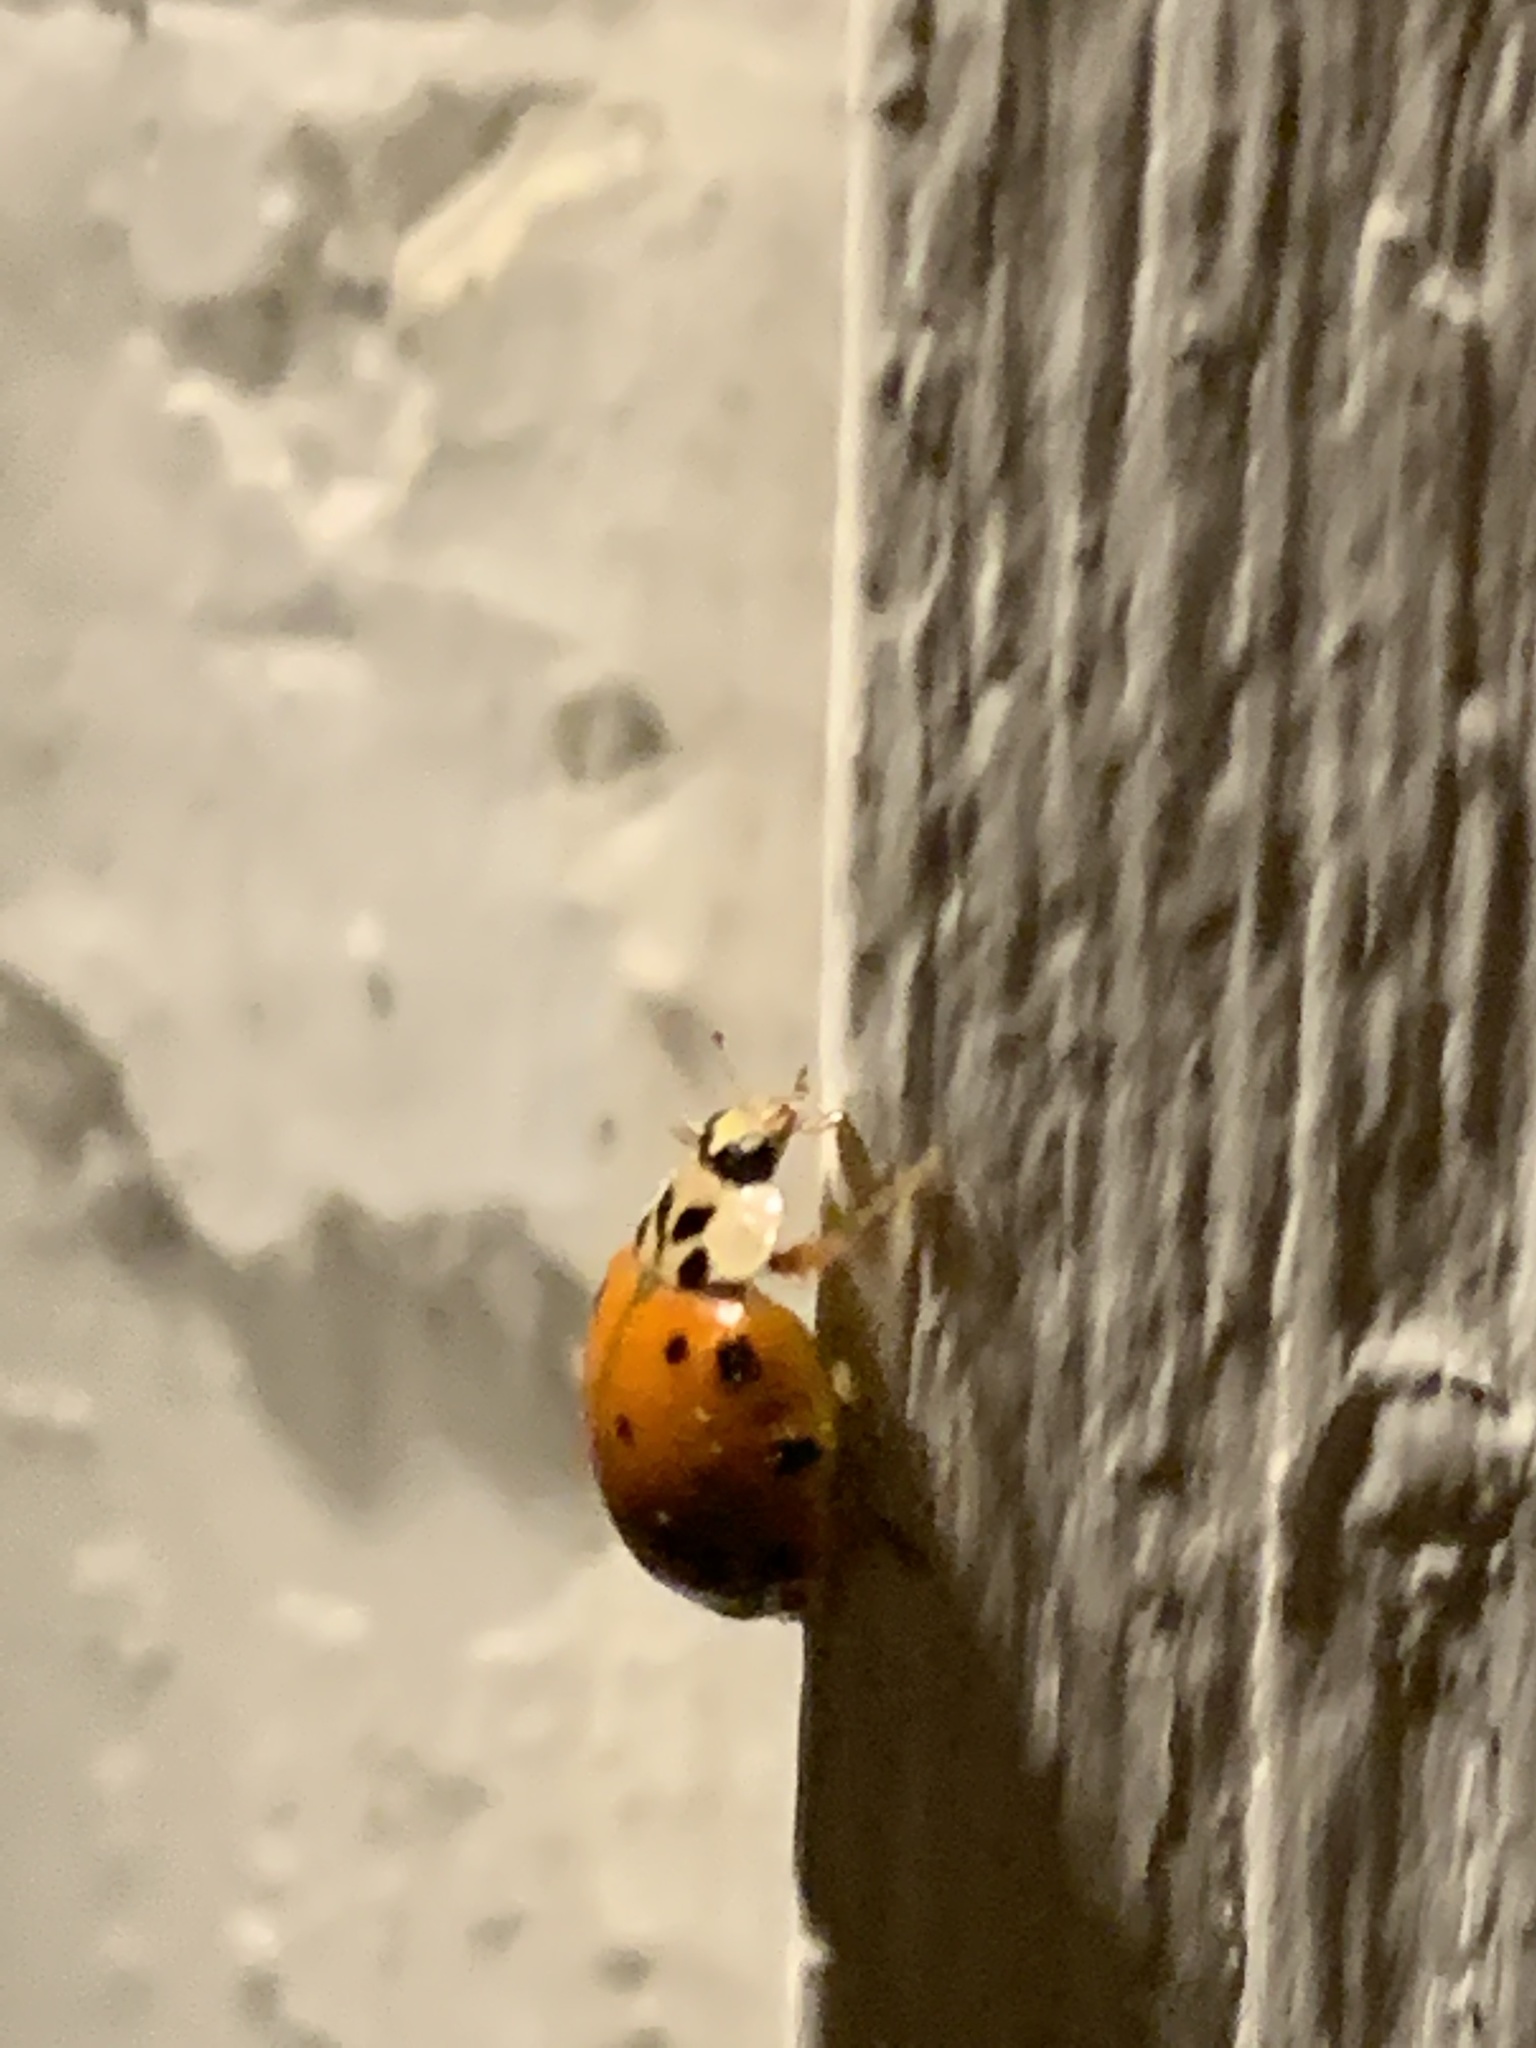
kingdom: Animalia
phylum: Arthropoda
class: Insecta
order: Coleoptera
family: Coccinellidae
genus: Harmonia
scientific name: Harmonia axyridis
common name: Harlequin ladybird
